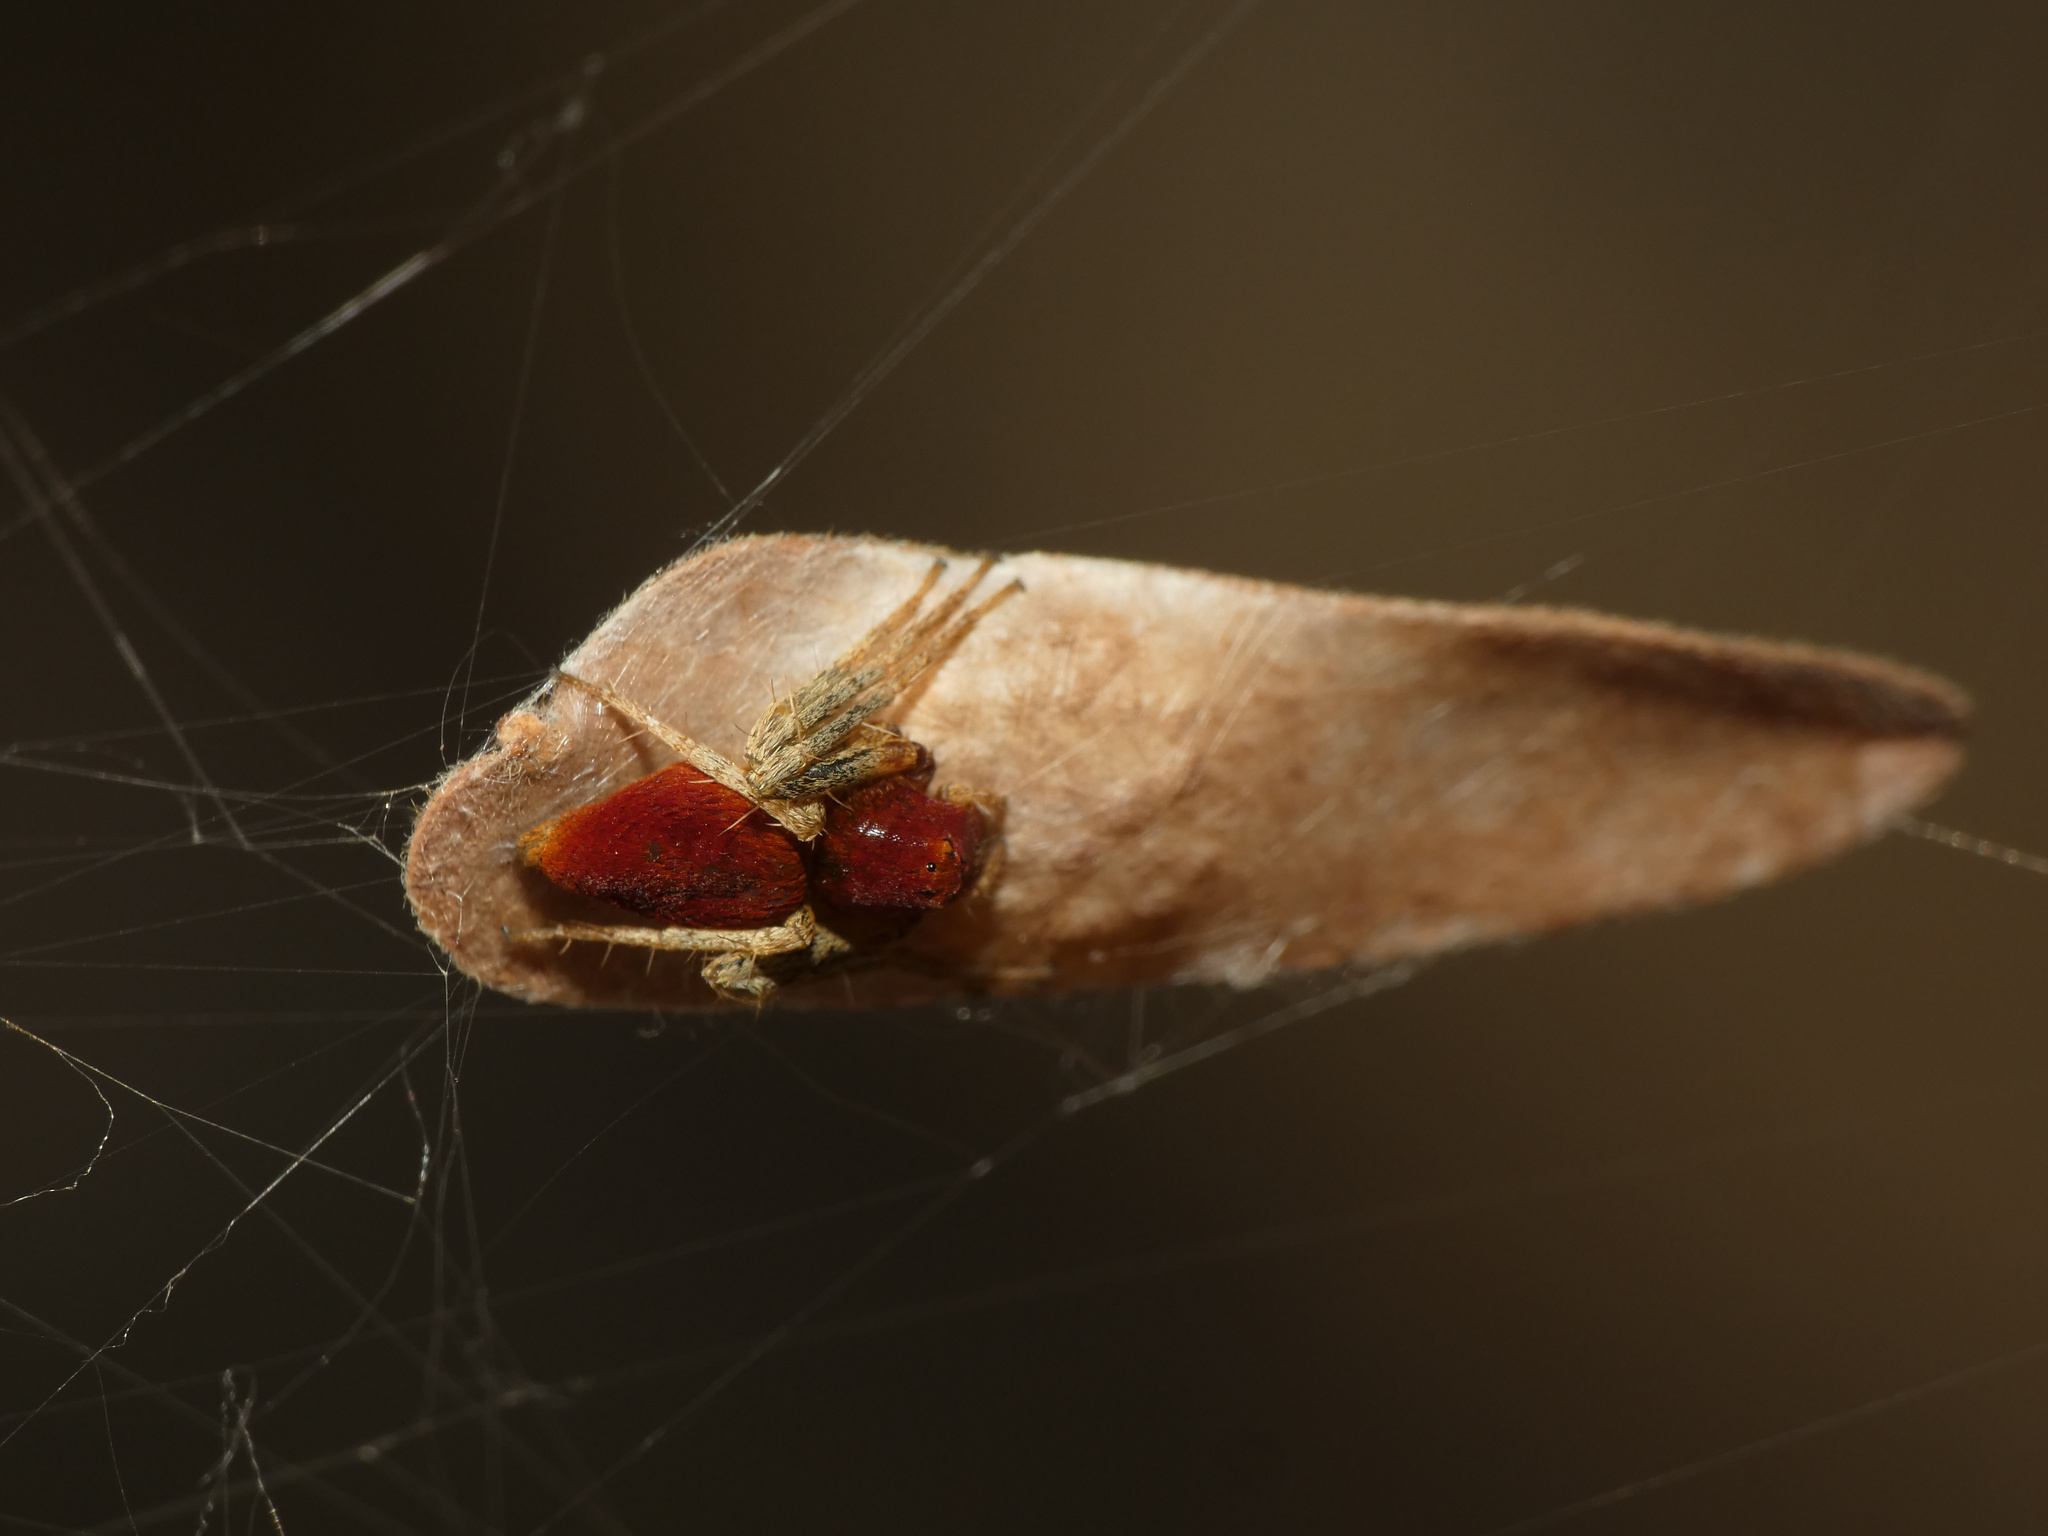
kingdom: Animalia
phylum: Arthropoda
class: Arachnida
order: Araneae
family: Oxyopidae
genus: Oxyopes
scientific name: Oxyopes flavipalpis
